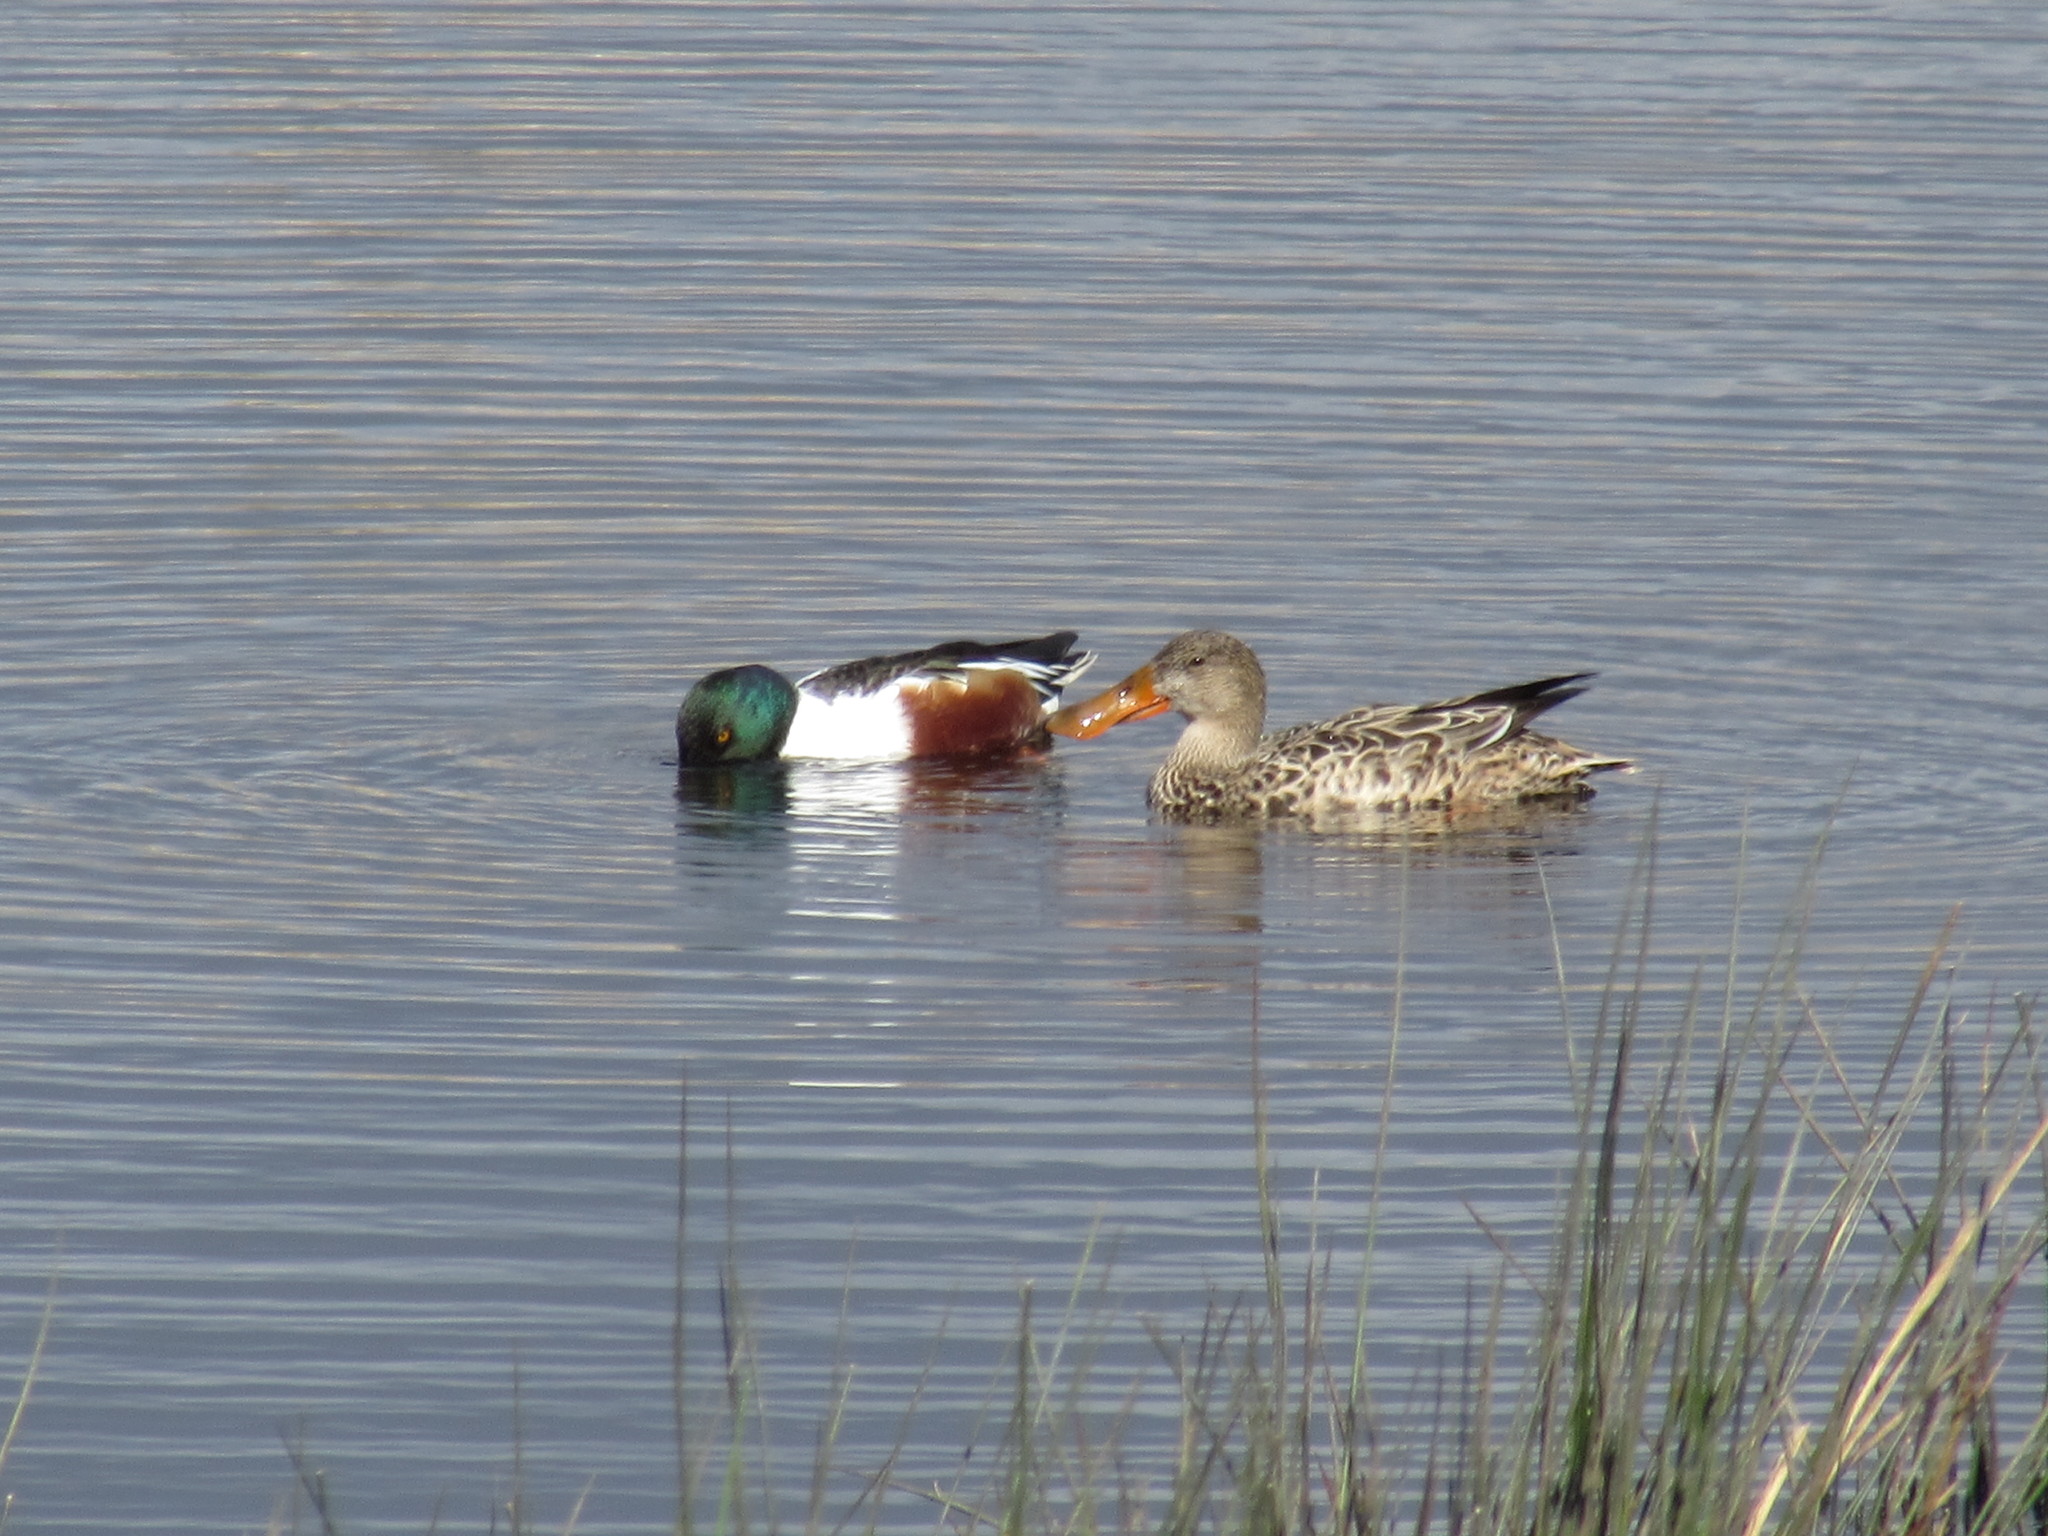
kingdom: Animalia
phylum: Chordata
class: Aves
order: Anseriformes
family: Anatidae
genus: Spatula
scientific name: Spatula clypeata
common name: Northern shoveler
